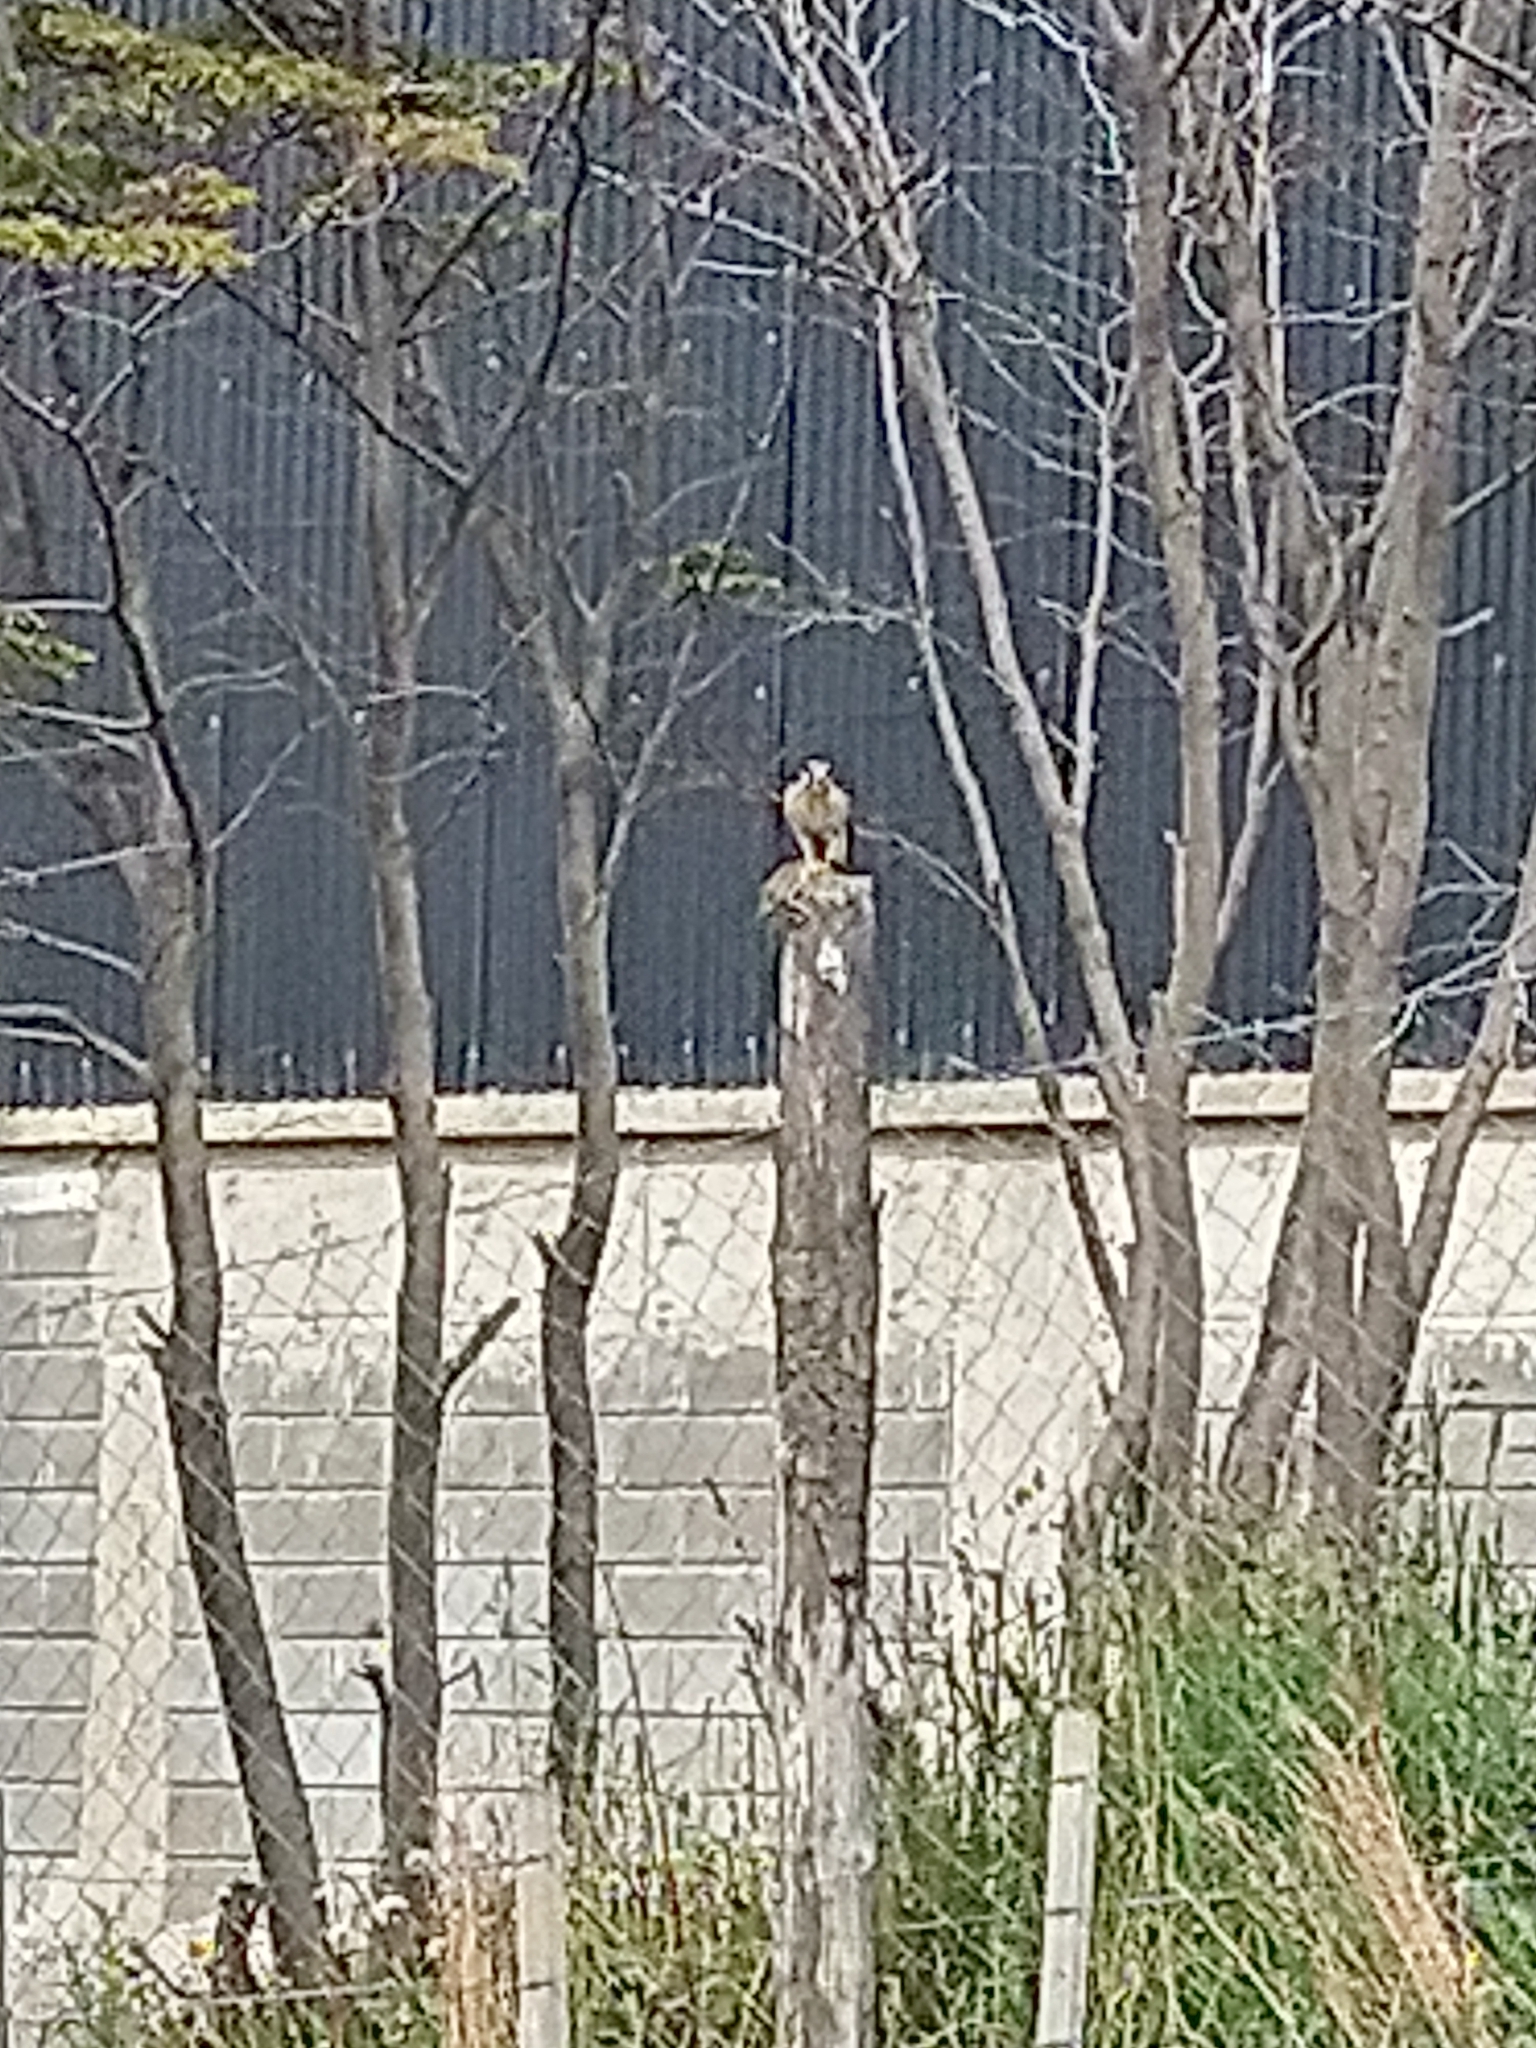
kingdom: Animalia
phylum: Chordata
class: Aves
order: Falconiformes
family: Falconidae
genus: Falco
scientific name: Falco sparverius
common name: American kestrel
